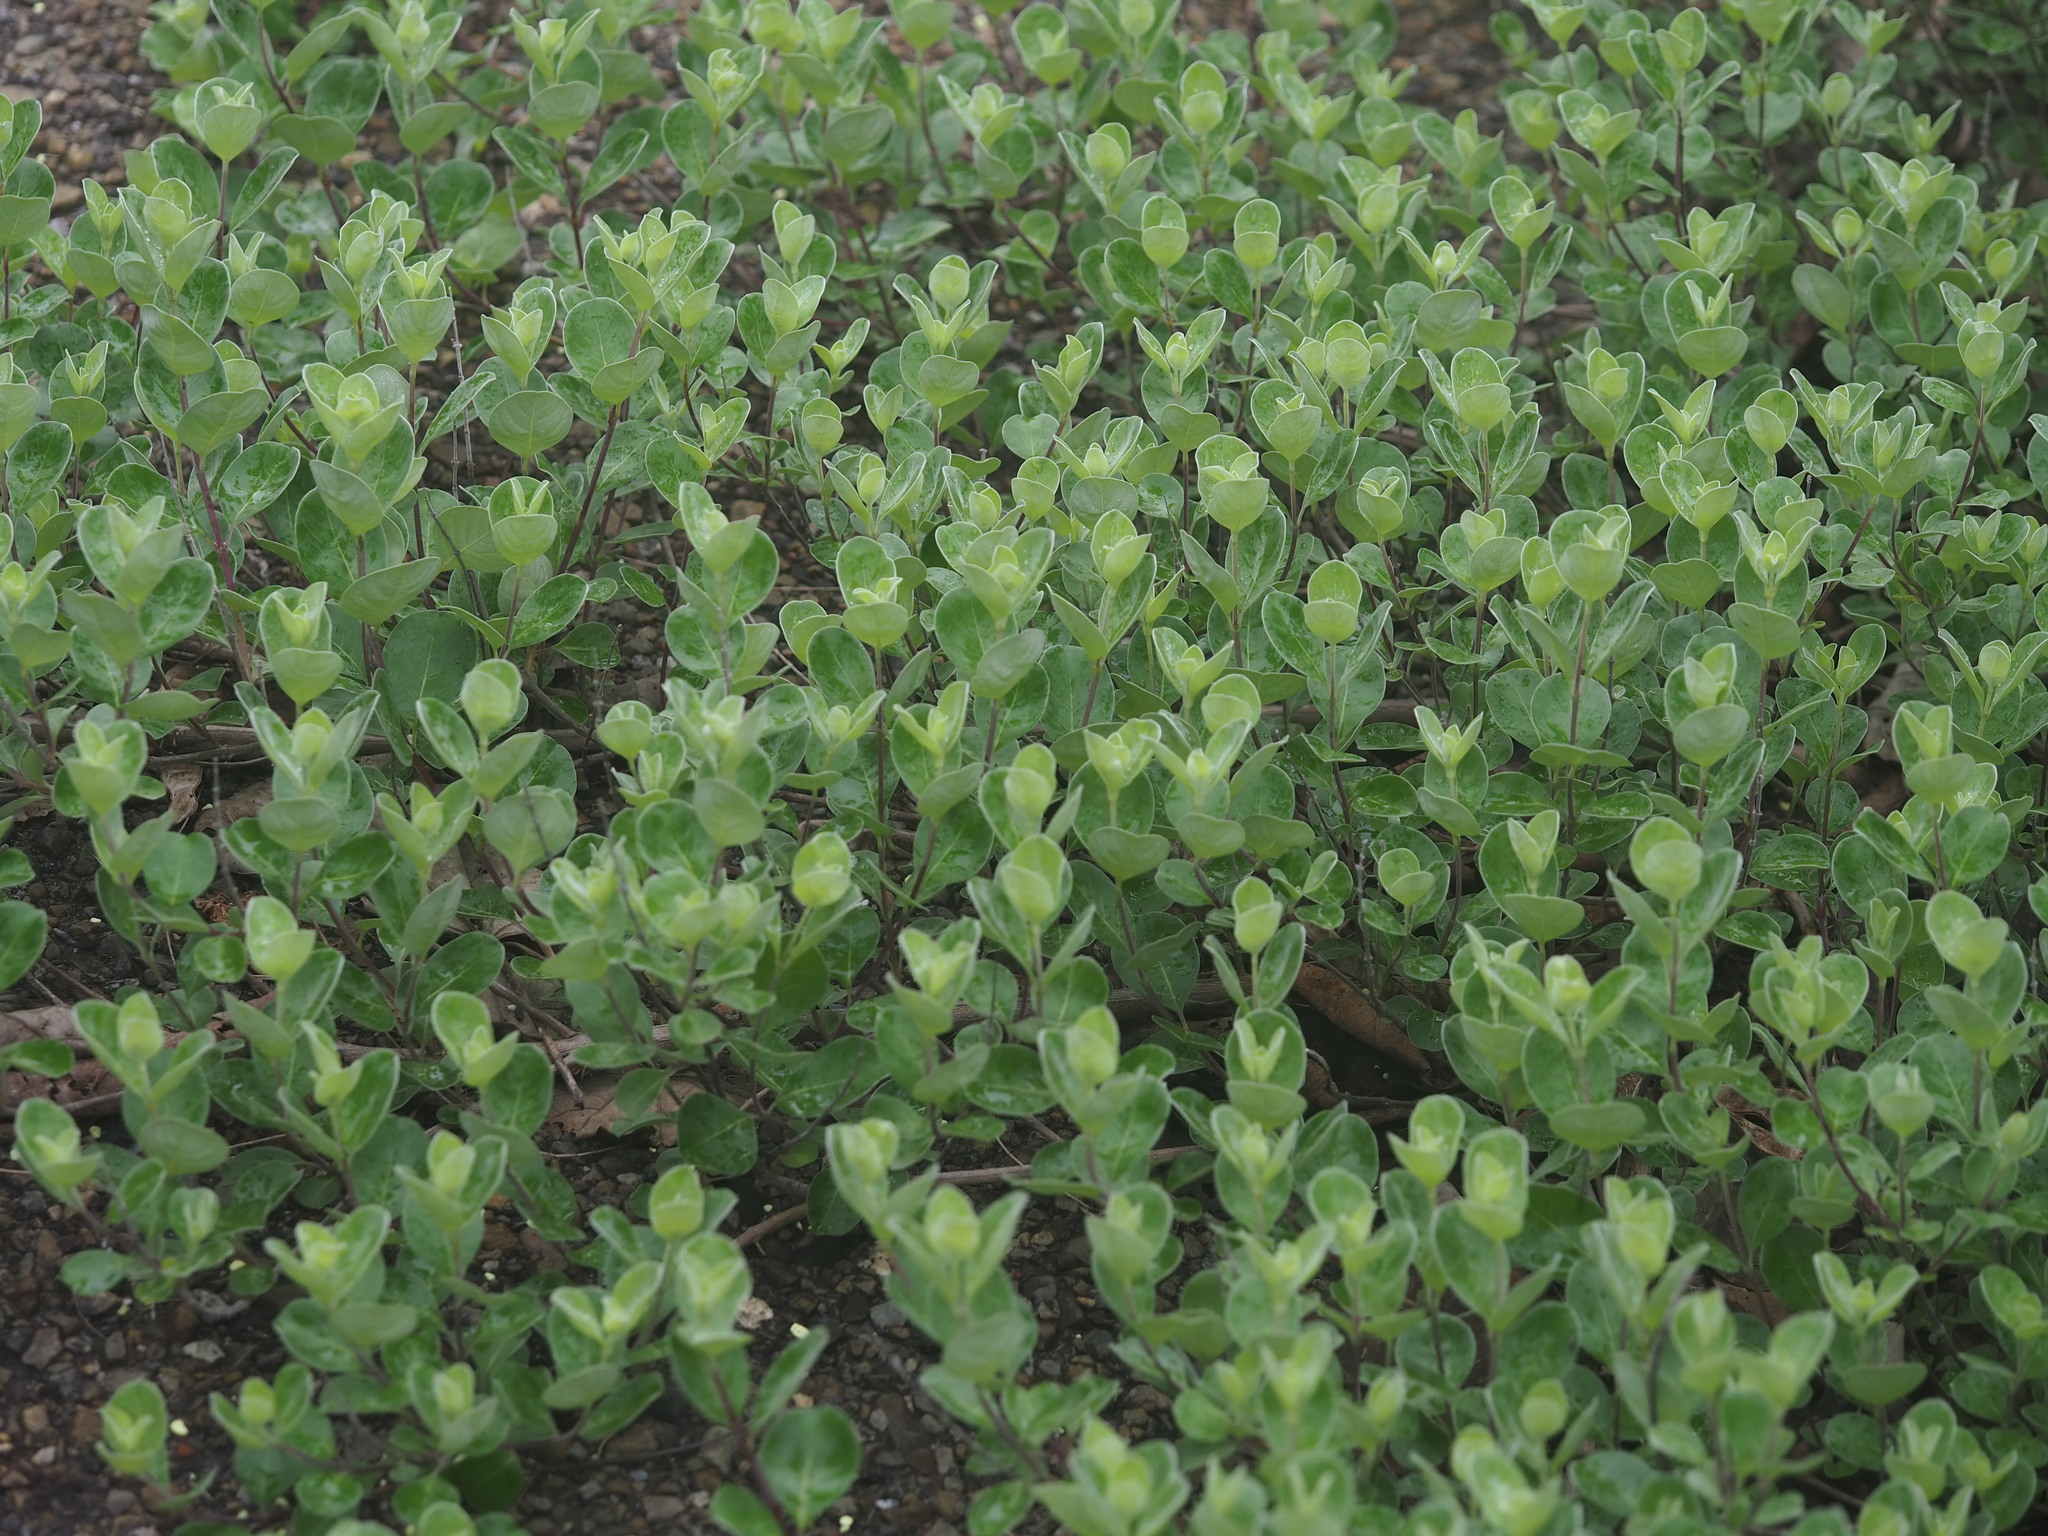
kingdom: Plantae
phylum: Tracheophyta
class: Magnoliopsida
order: Lamiales
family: Lamiaceae
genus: Vitex
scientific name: Vitex rotundifolia
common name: Beach vitex
